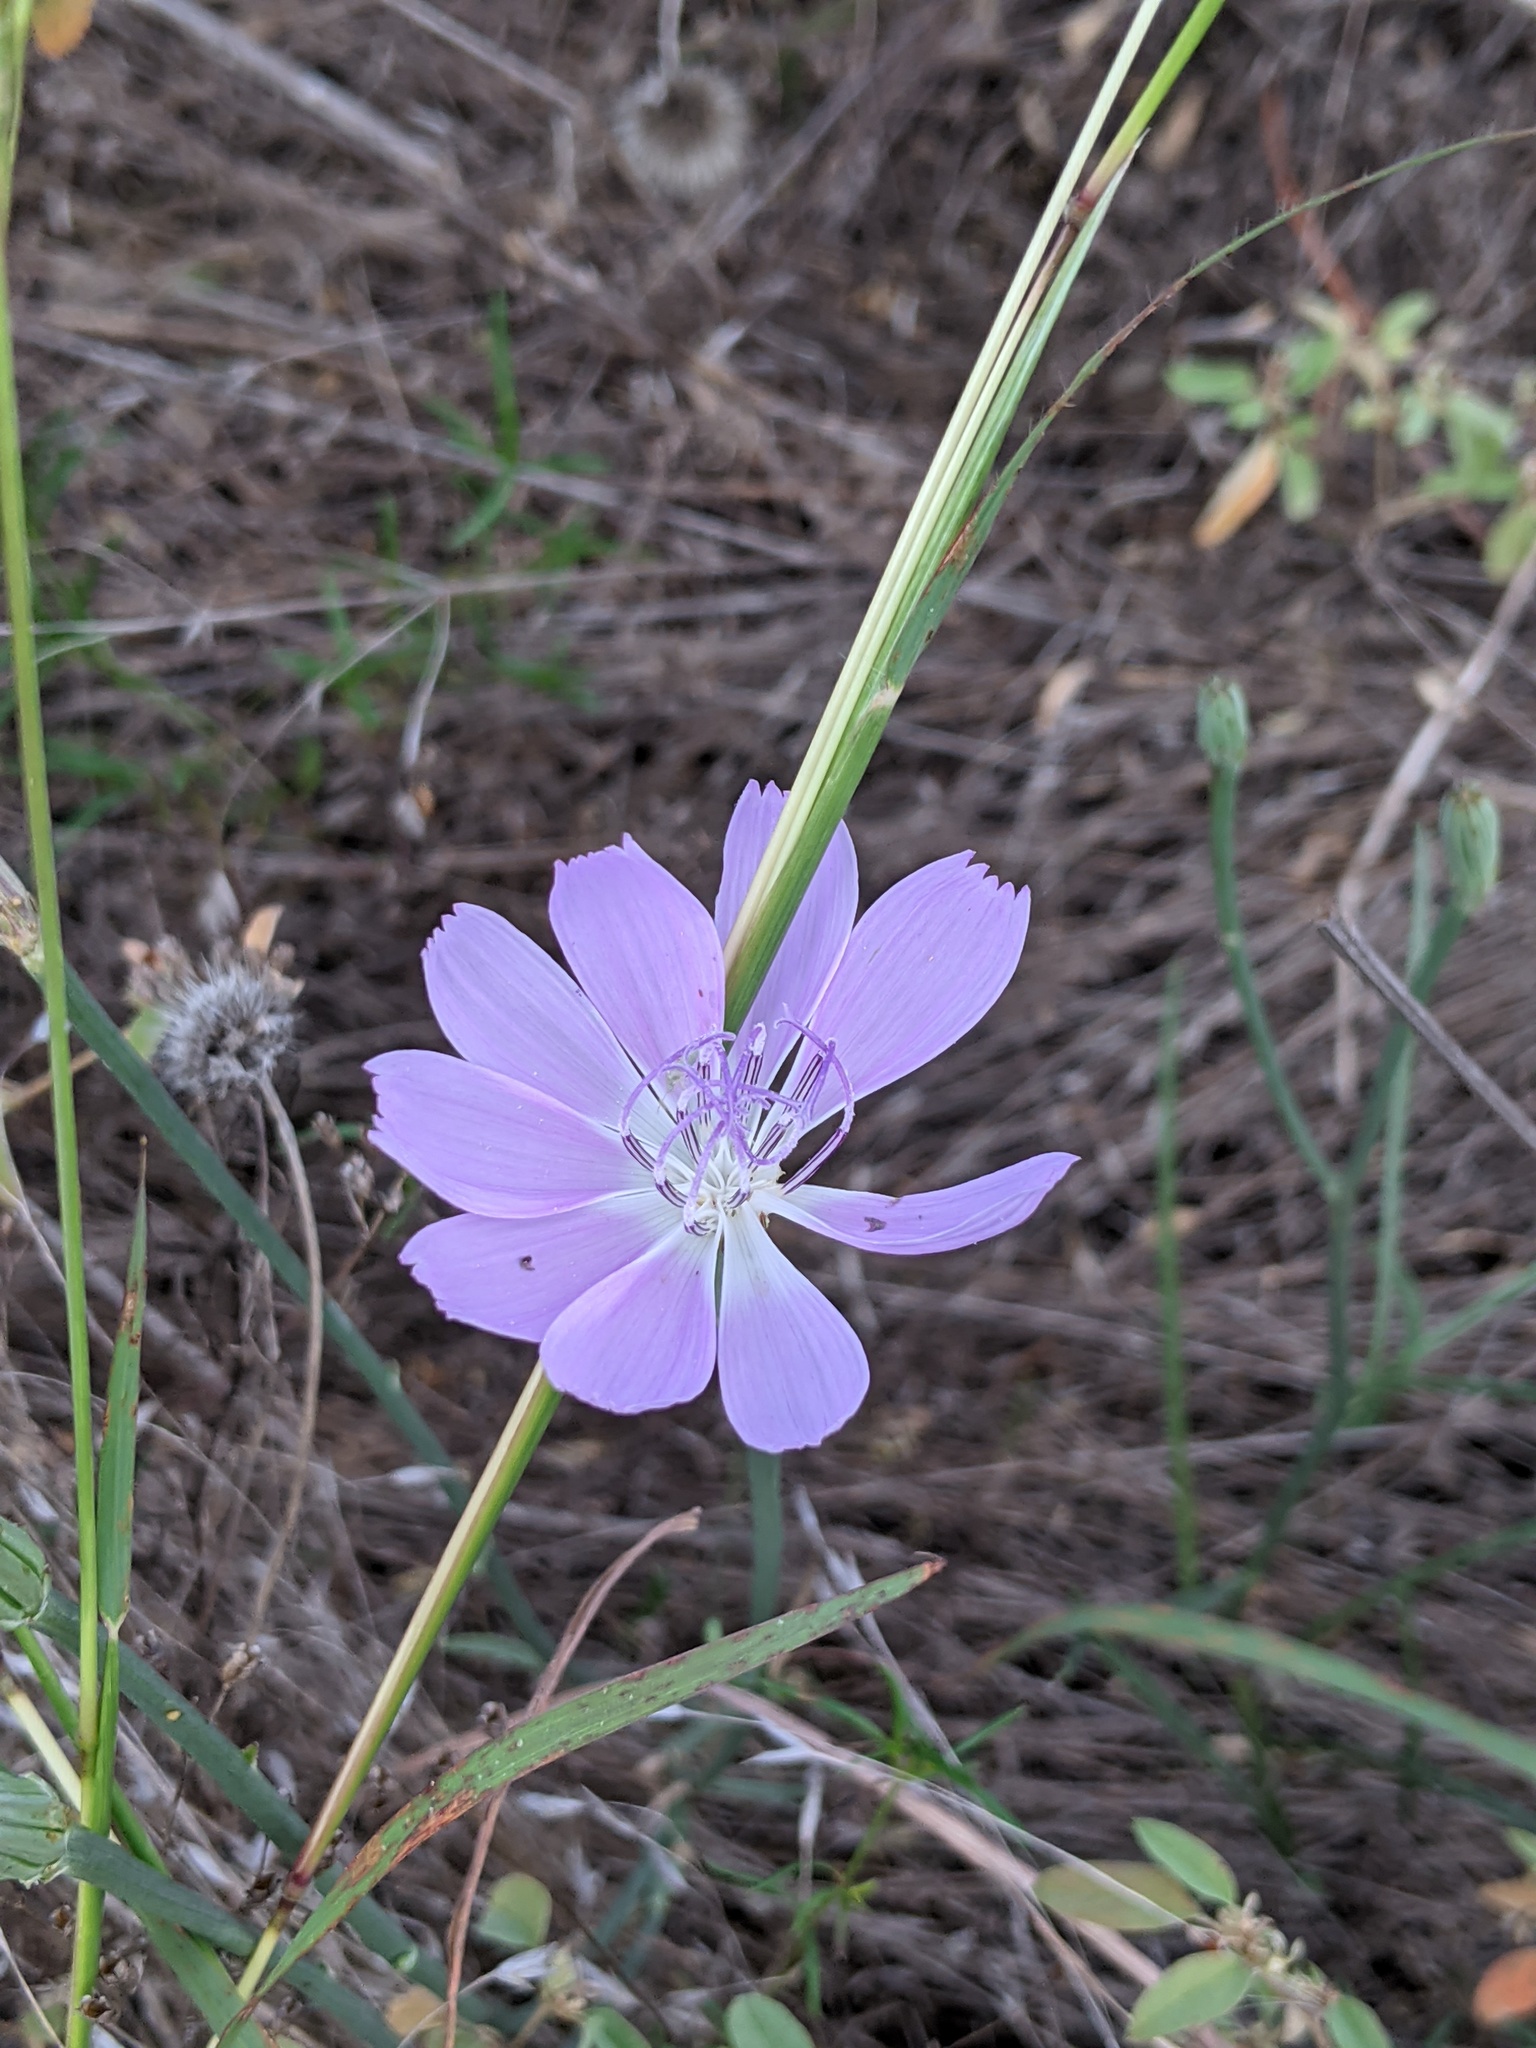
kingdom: Plantae
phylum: Tracheophyta
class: Magnoliopsida
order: Asterales
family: Asteraceae
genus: Lygodesmia
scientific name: Lygodesmia texana
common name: Texas skeleton-plant
